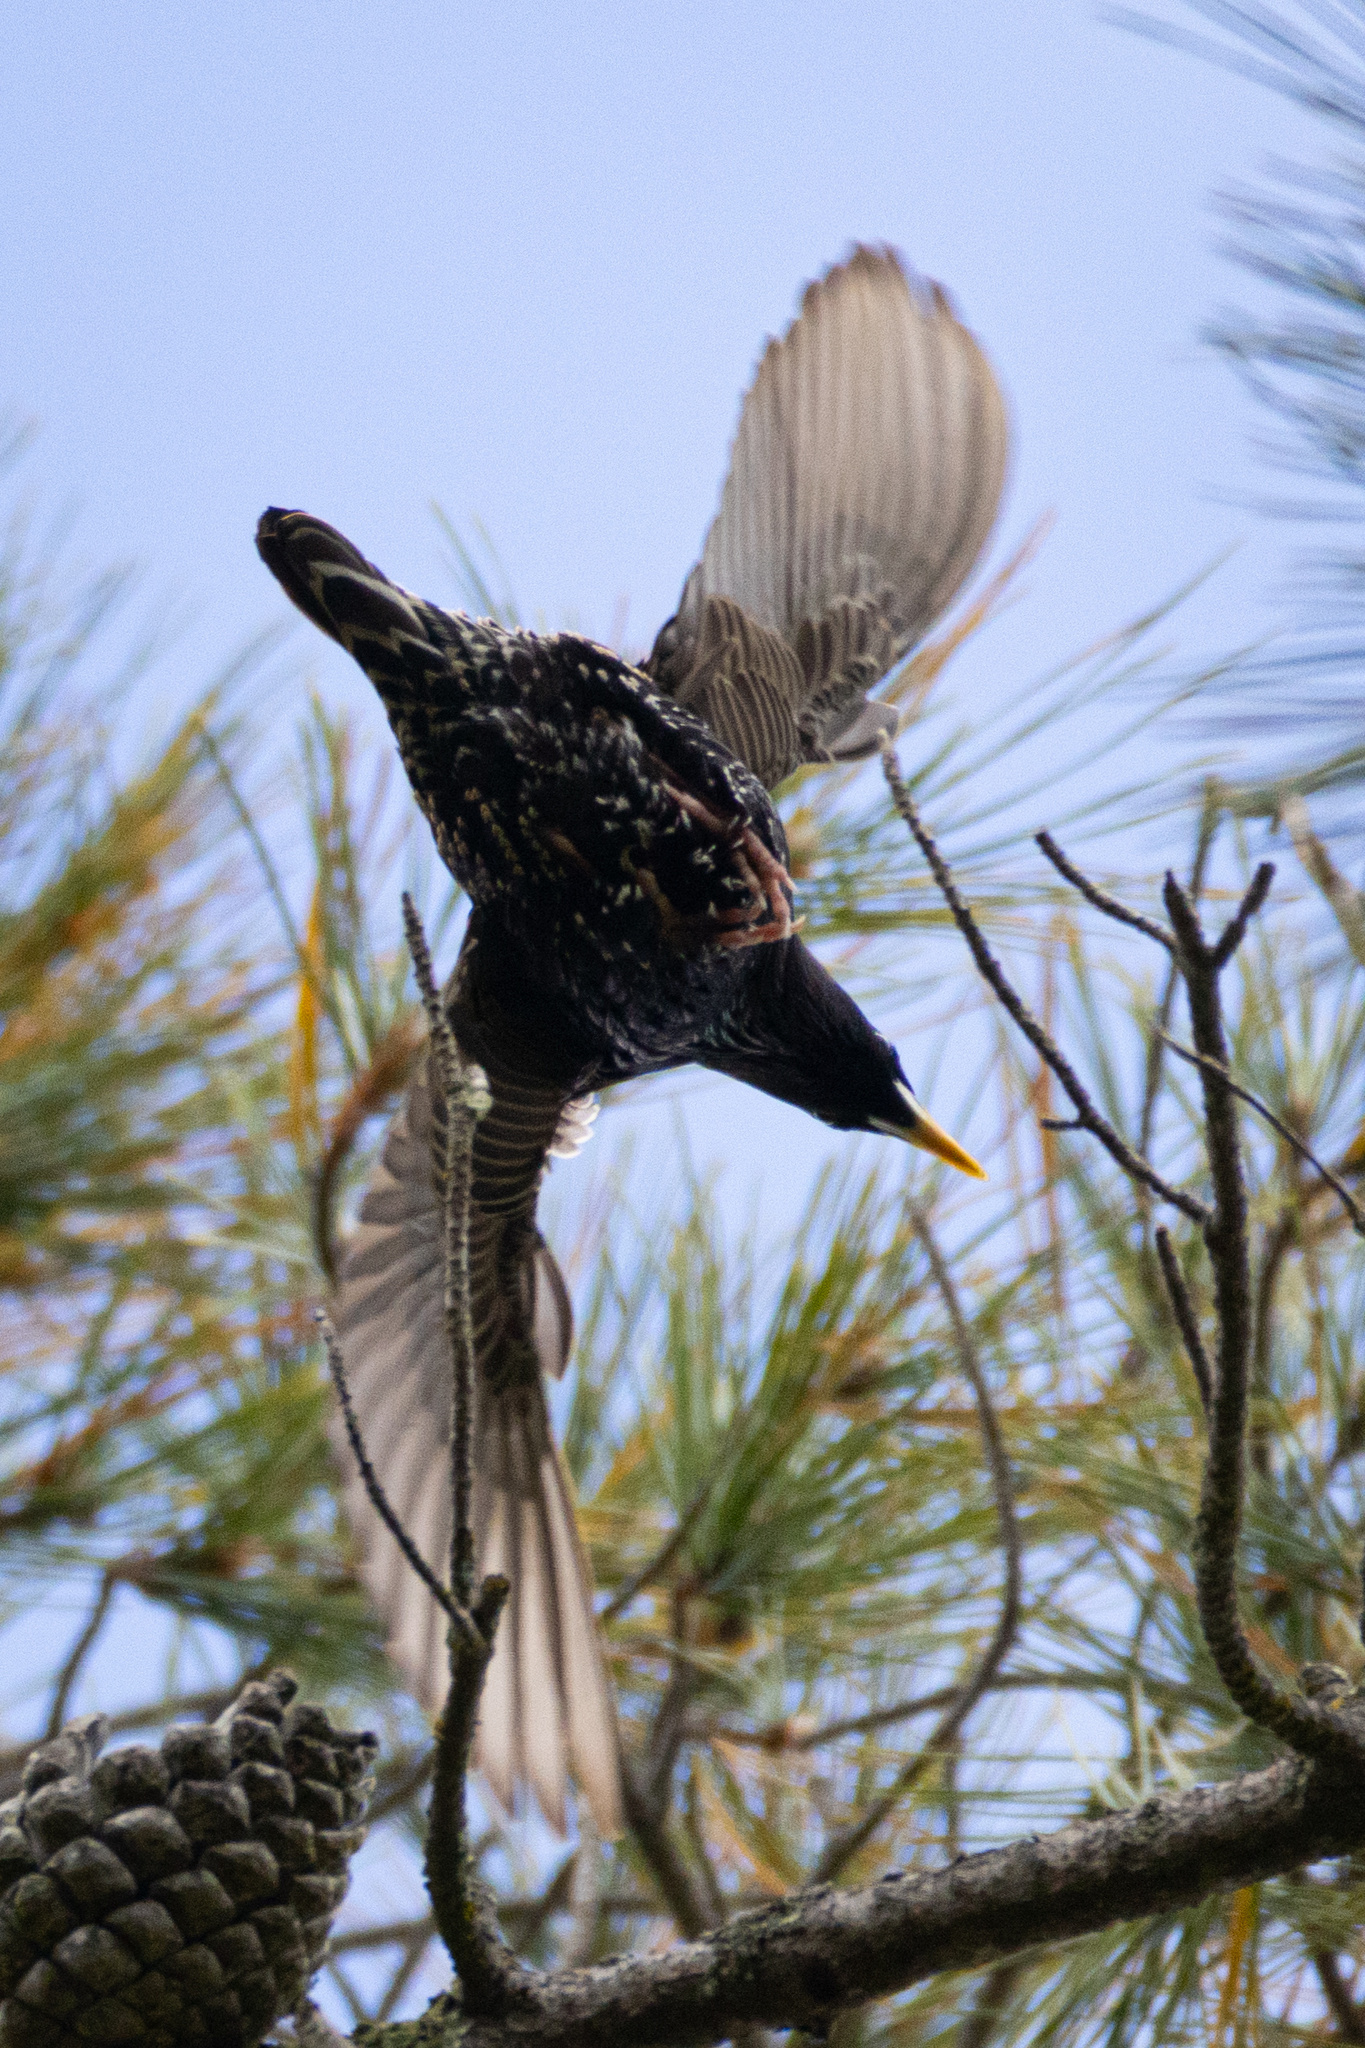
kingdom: Animalia
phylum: Chordata
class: Aves
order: Passeriformes
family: Sturnidae
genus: Sturnus
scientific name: Sturnus vulgaris
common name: Common starling
